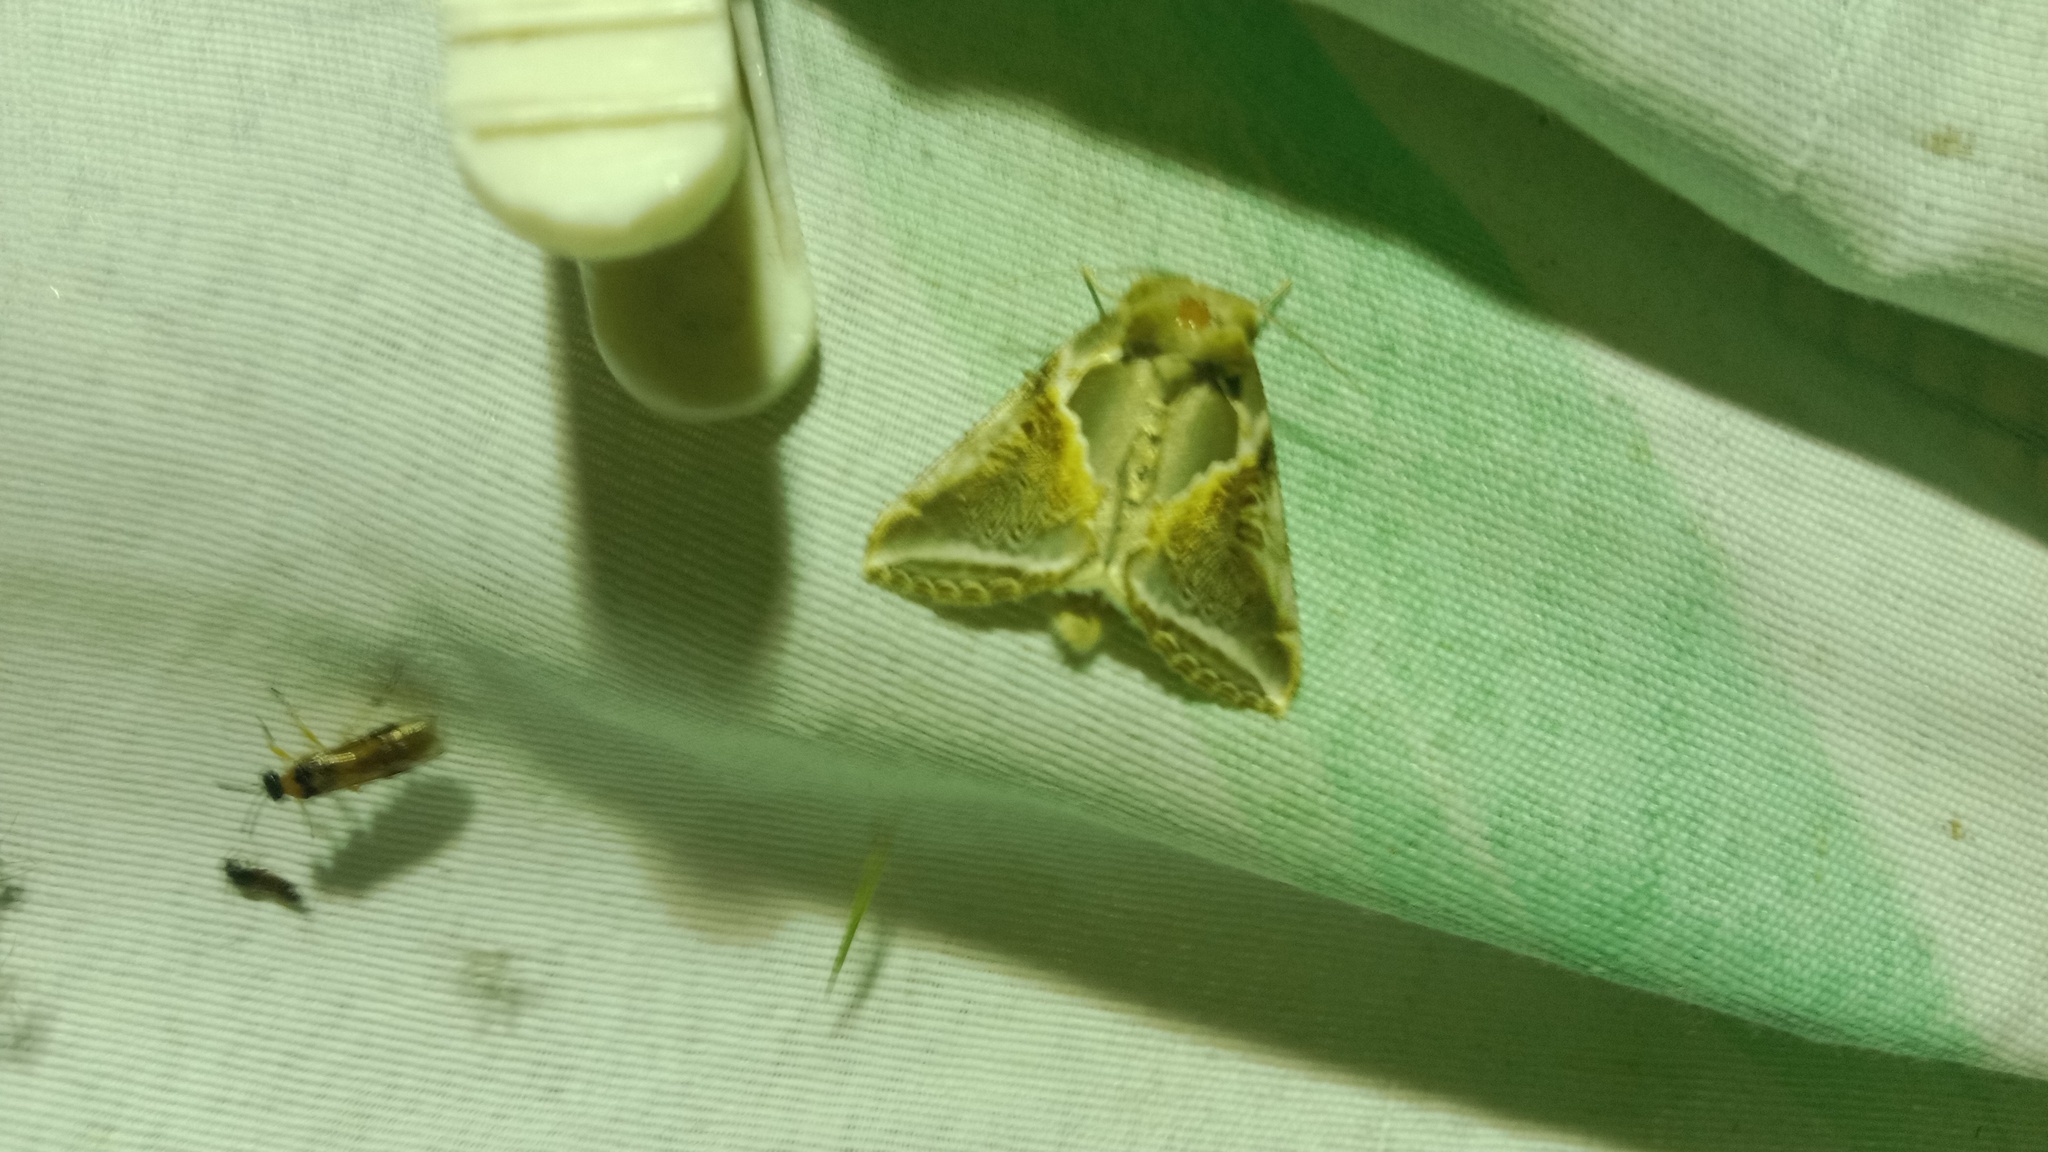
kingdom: Animalia
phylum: Arthropoda
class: Insecta
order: Lepidoptera
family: Drepanidae
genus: Habrosyne
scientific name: Habrosyne pyritoides
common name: Buff arches
